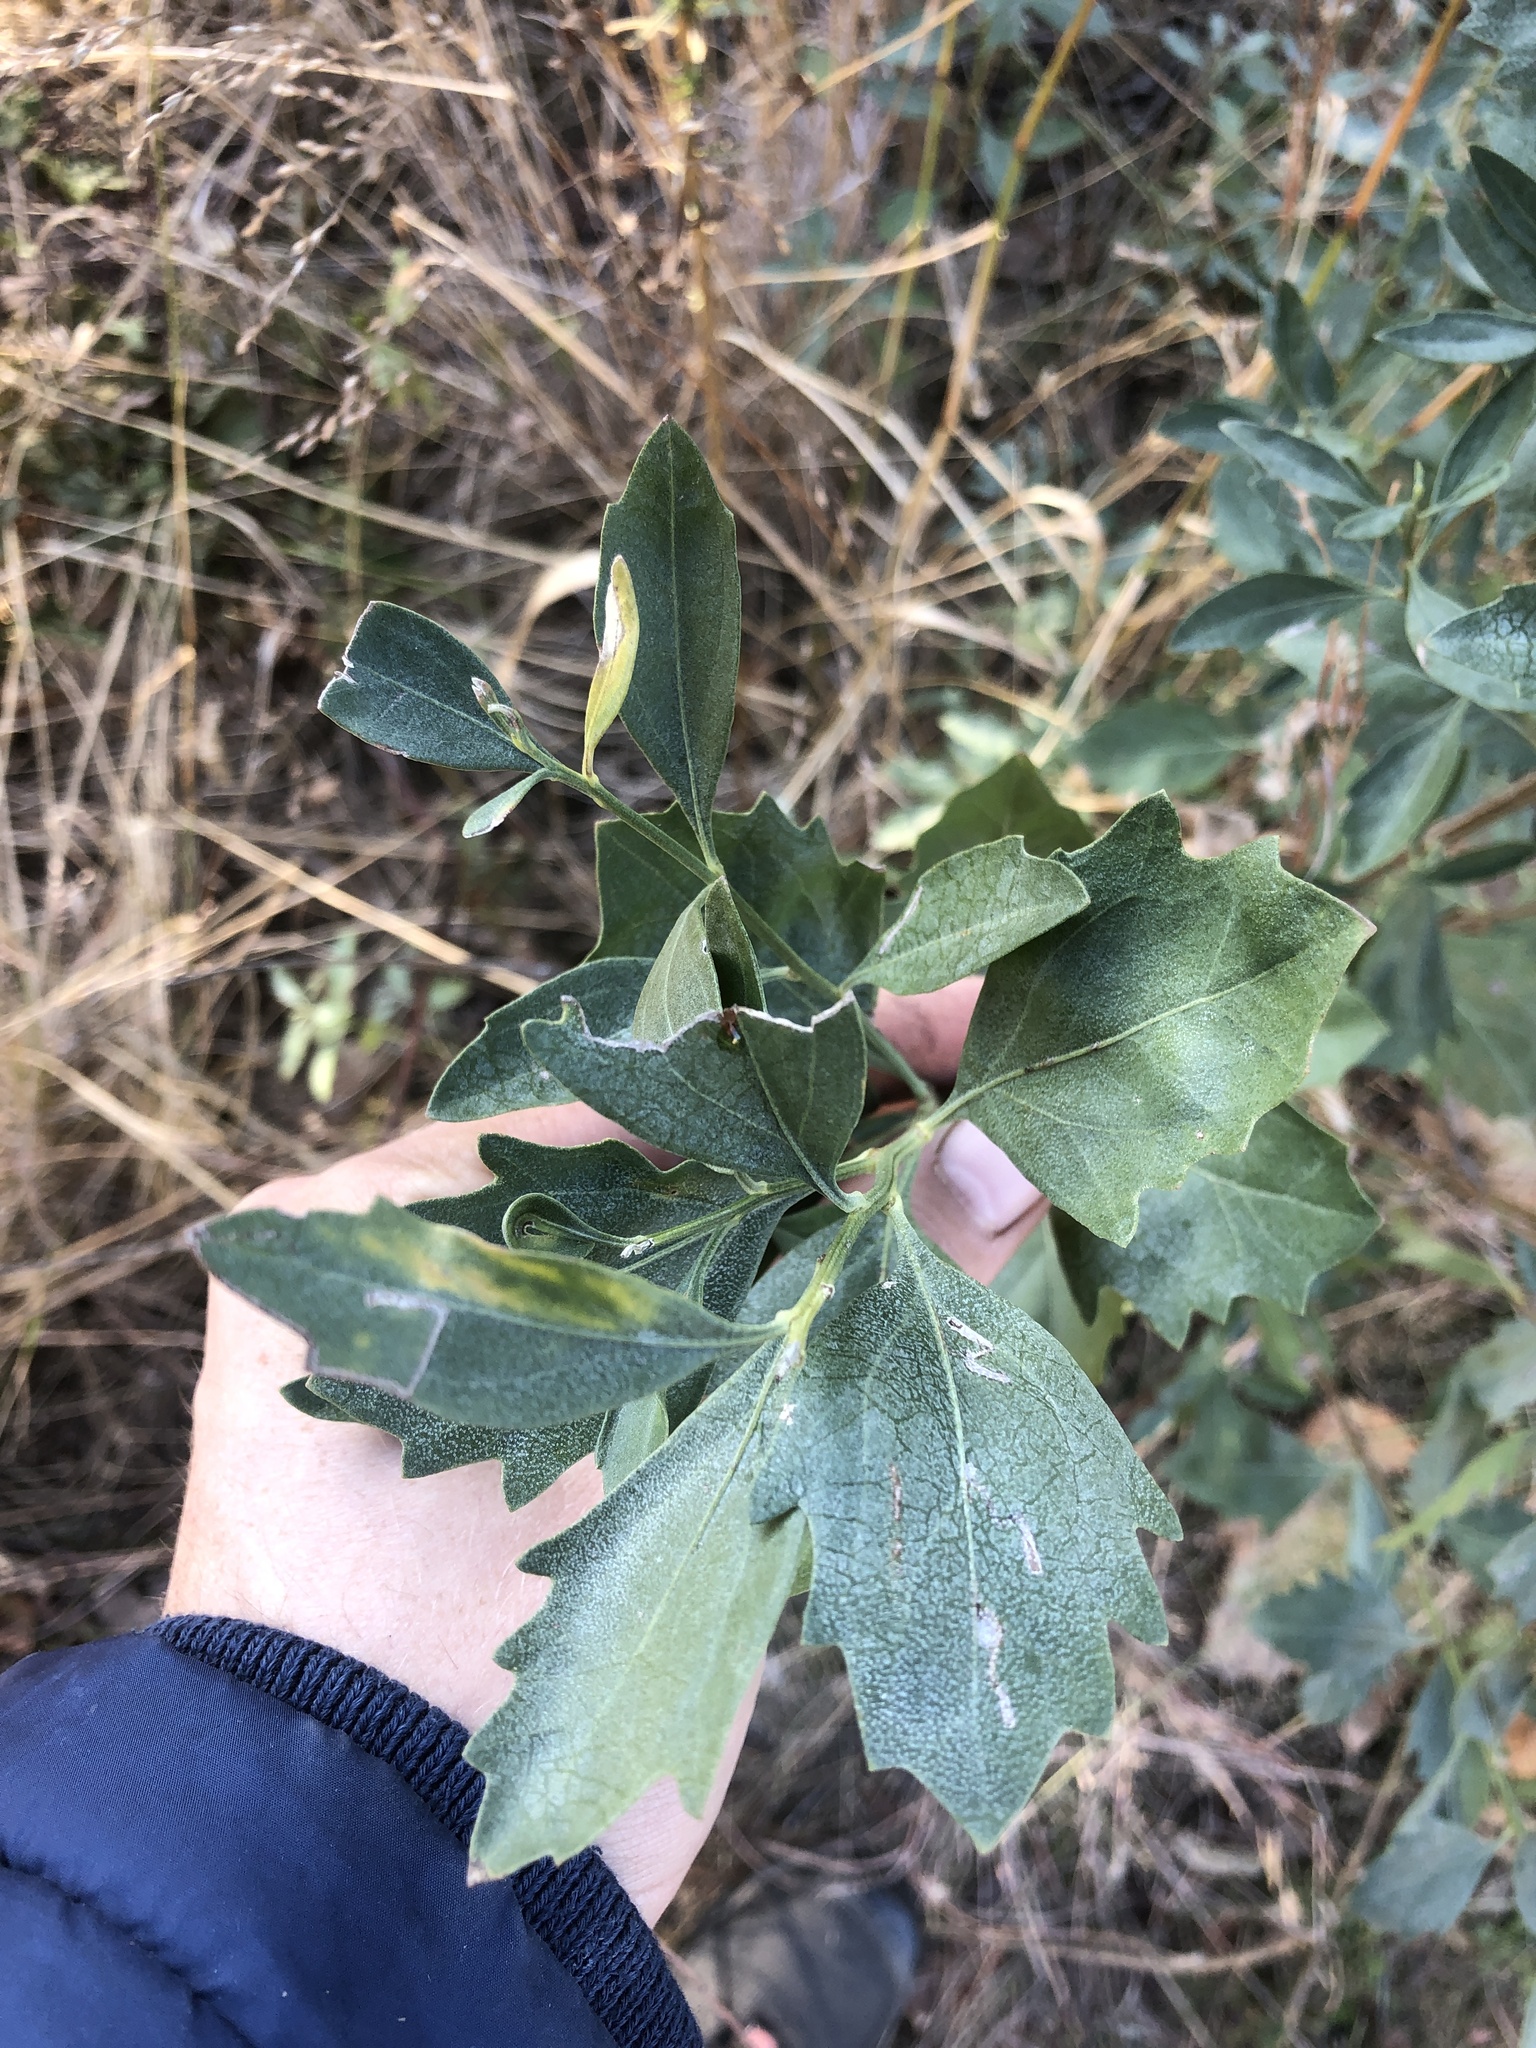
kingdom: Plantae
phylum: Tracheophyta
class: Magnoliopsida
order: Asterales
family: Asteraceae
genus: Baccharis
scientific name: Baccharis halimifolia
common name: Eastern baccharis
